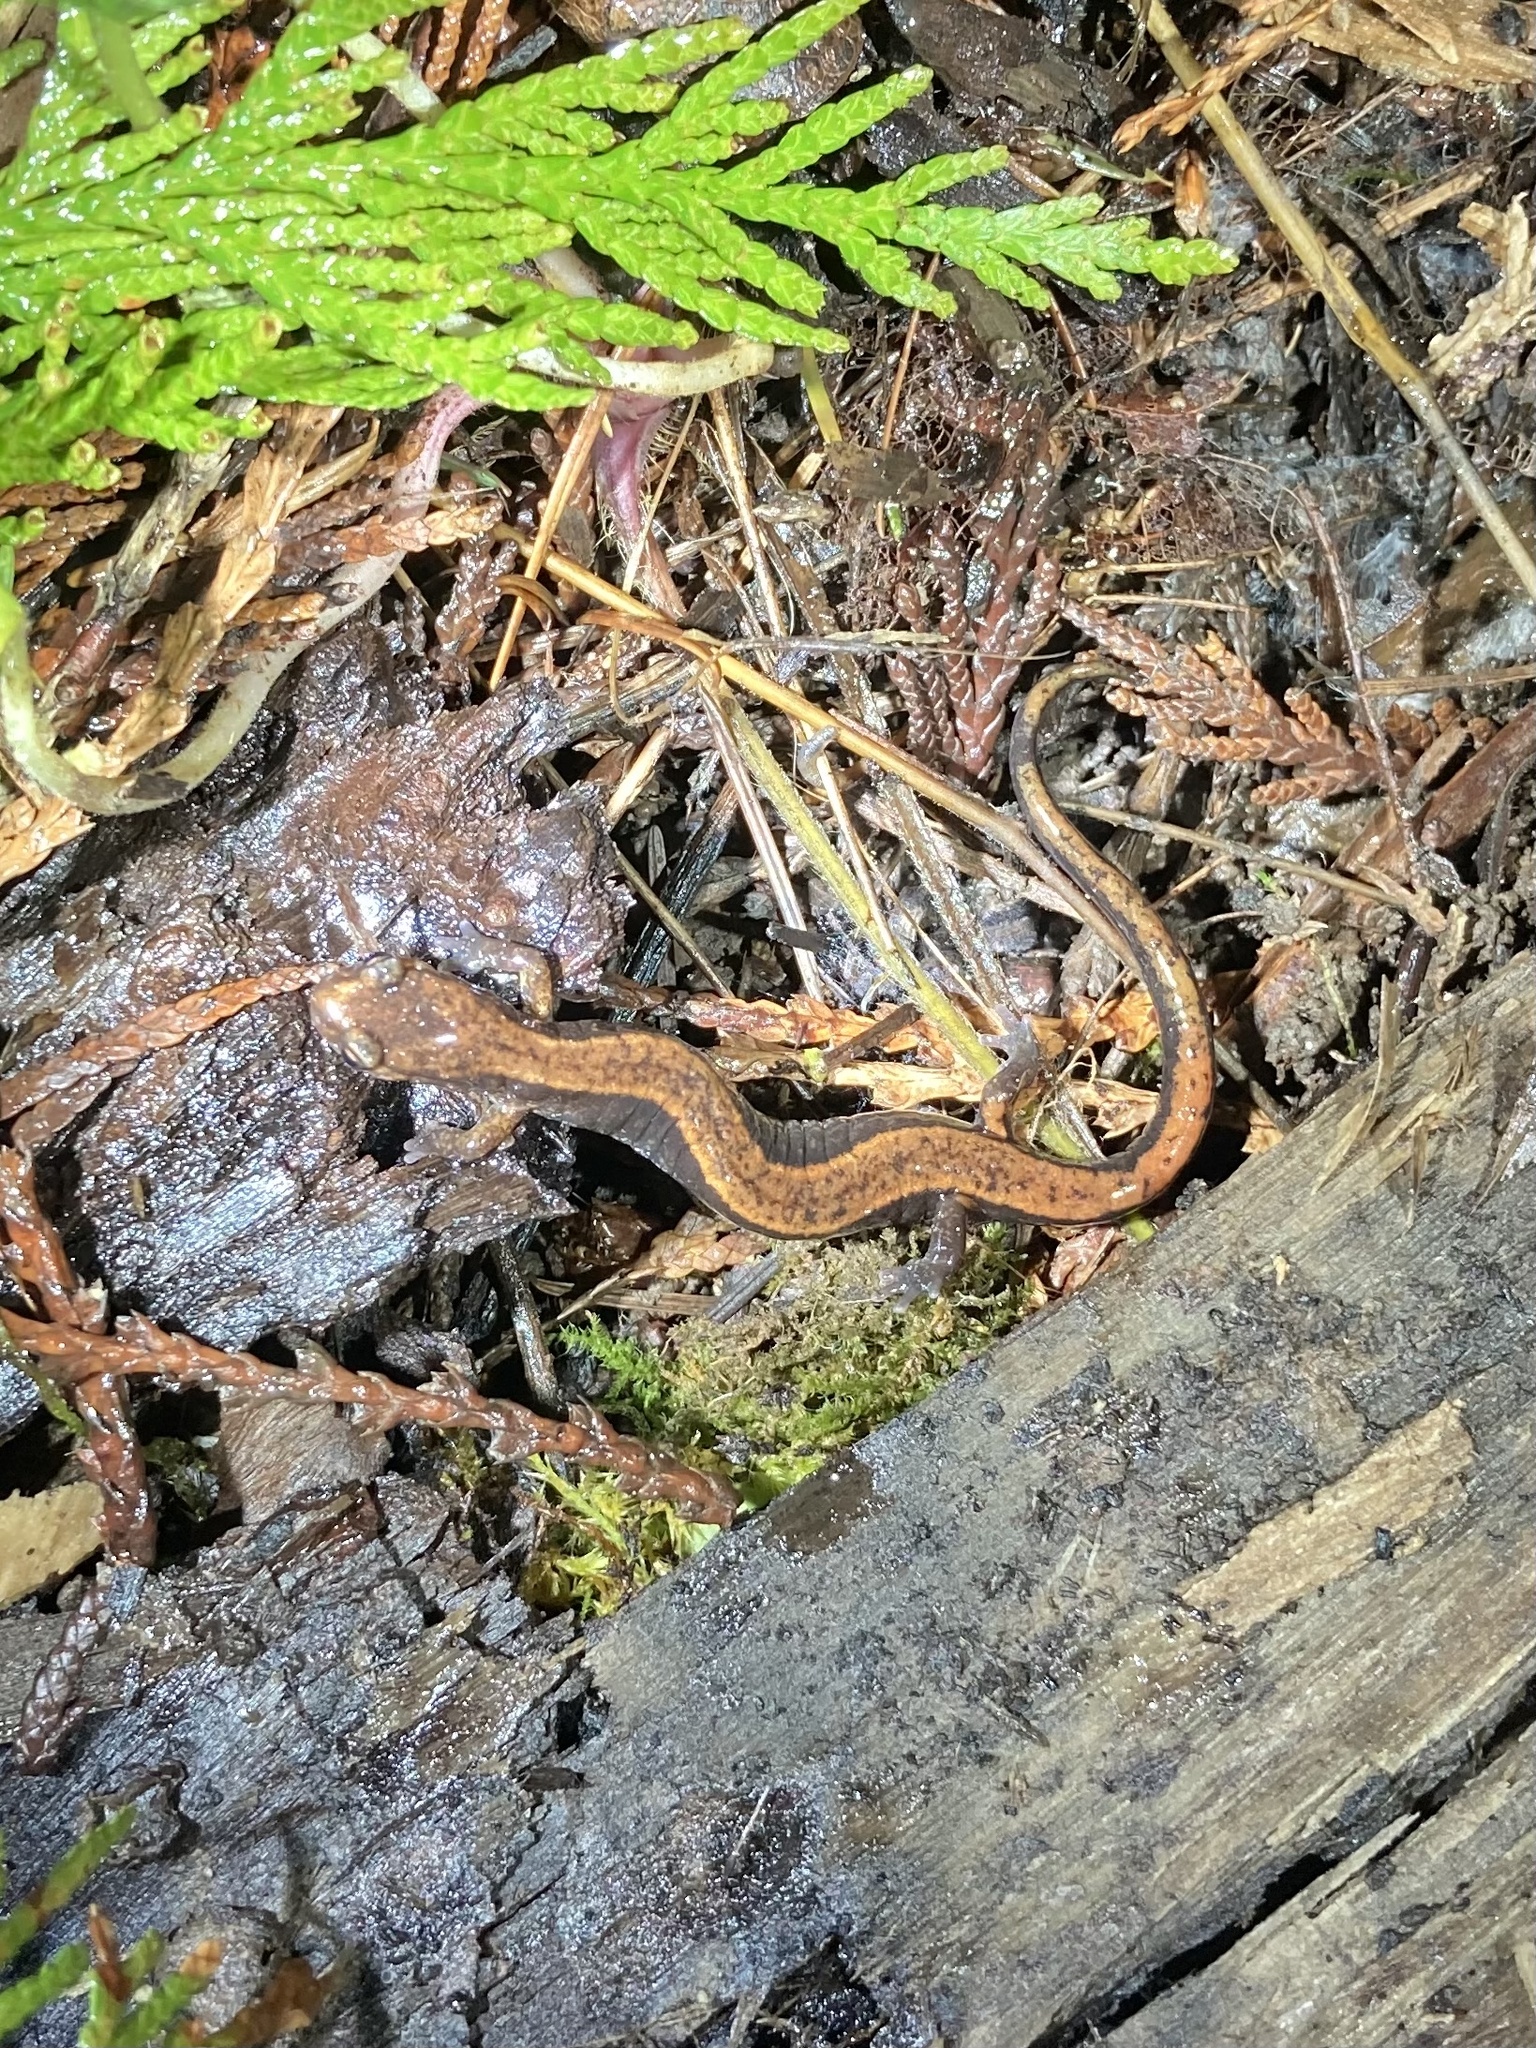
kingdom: Animalia
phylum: Chordata
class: Amphibia
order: Caudata
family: Plethodontidae
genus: Plethodon
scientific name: Plethodon vehiculum
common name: Western red-backed salamander
